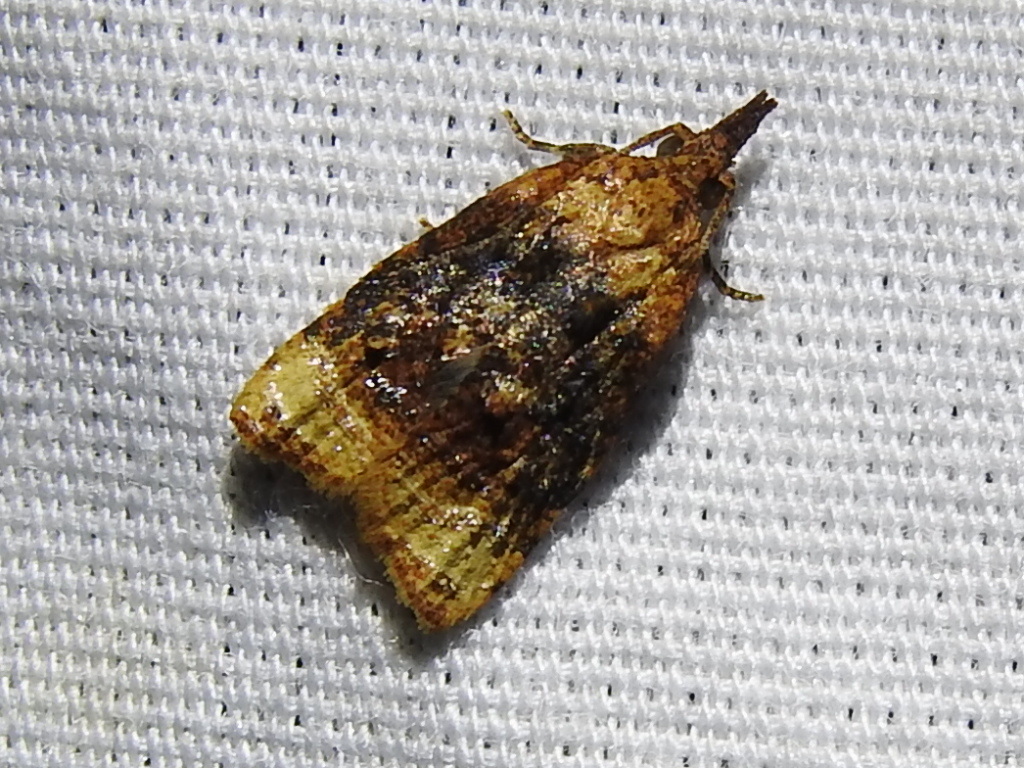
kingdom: Animalia
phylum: Arthropoda
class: Insecta
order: Lepidoptera
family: Tortricidae
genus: Platynota
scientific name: Platynota flavedana
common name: Black-shaded platynota moth
